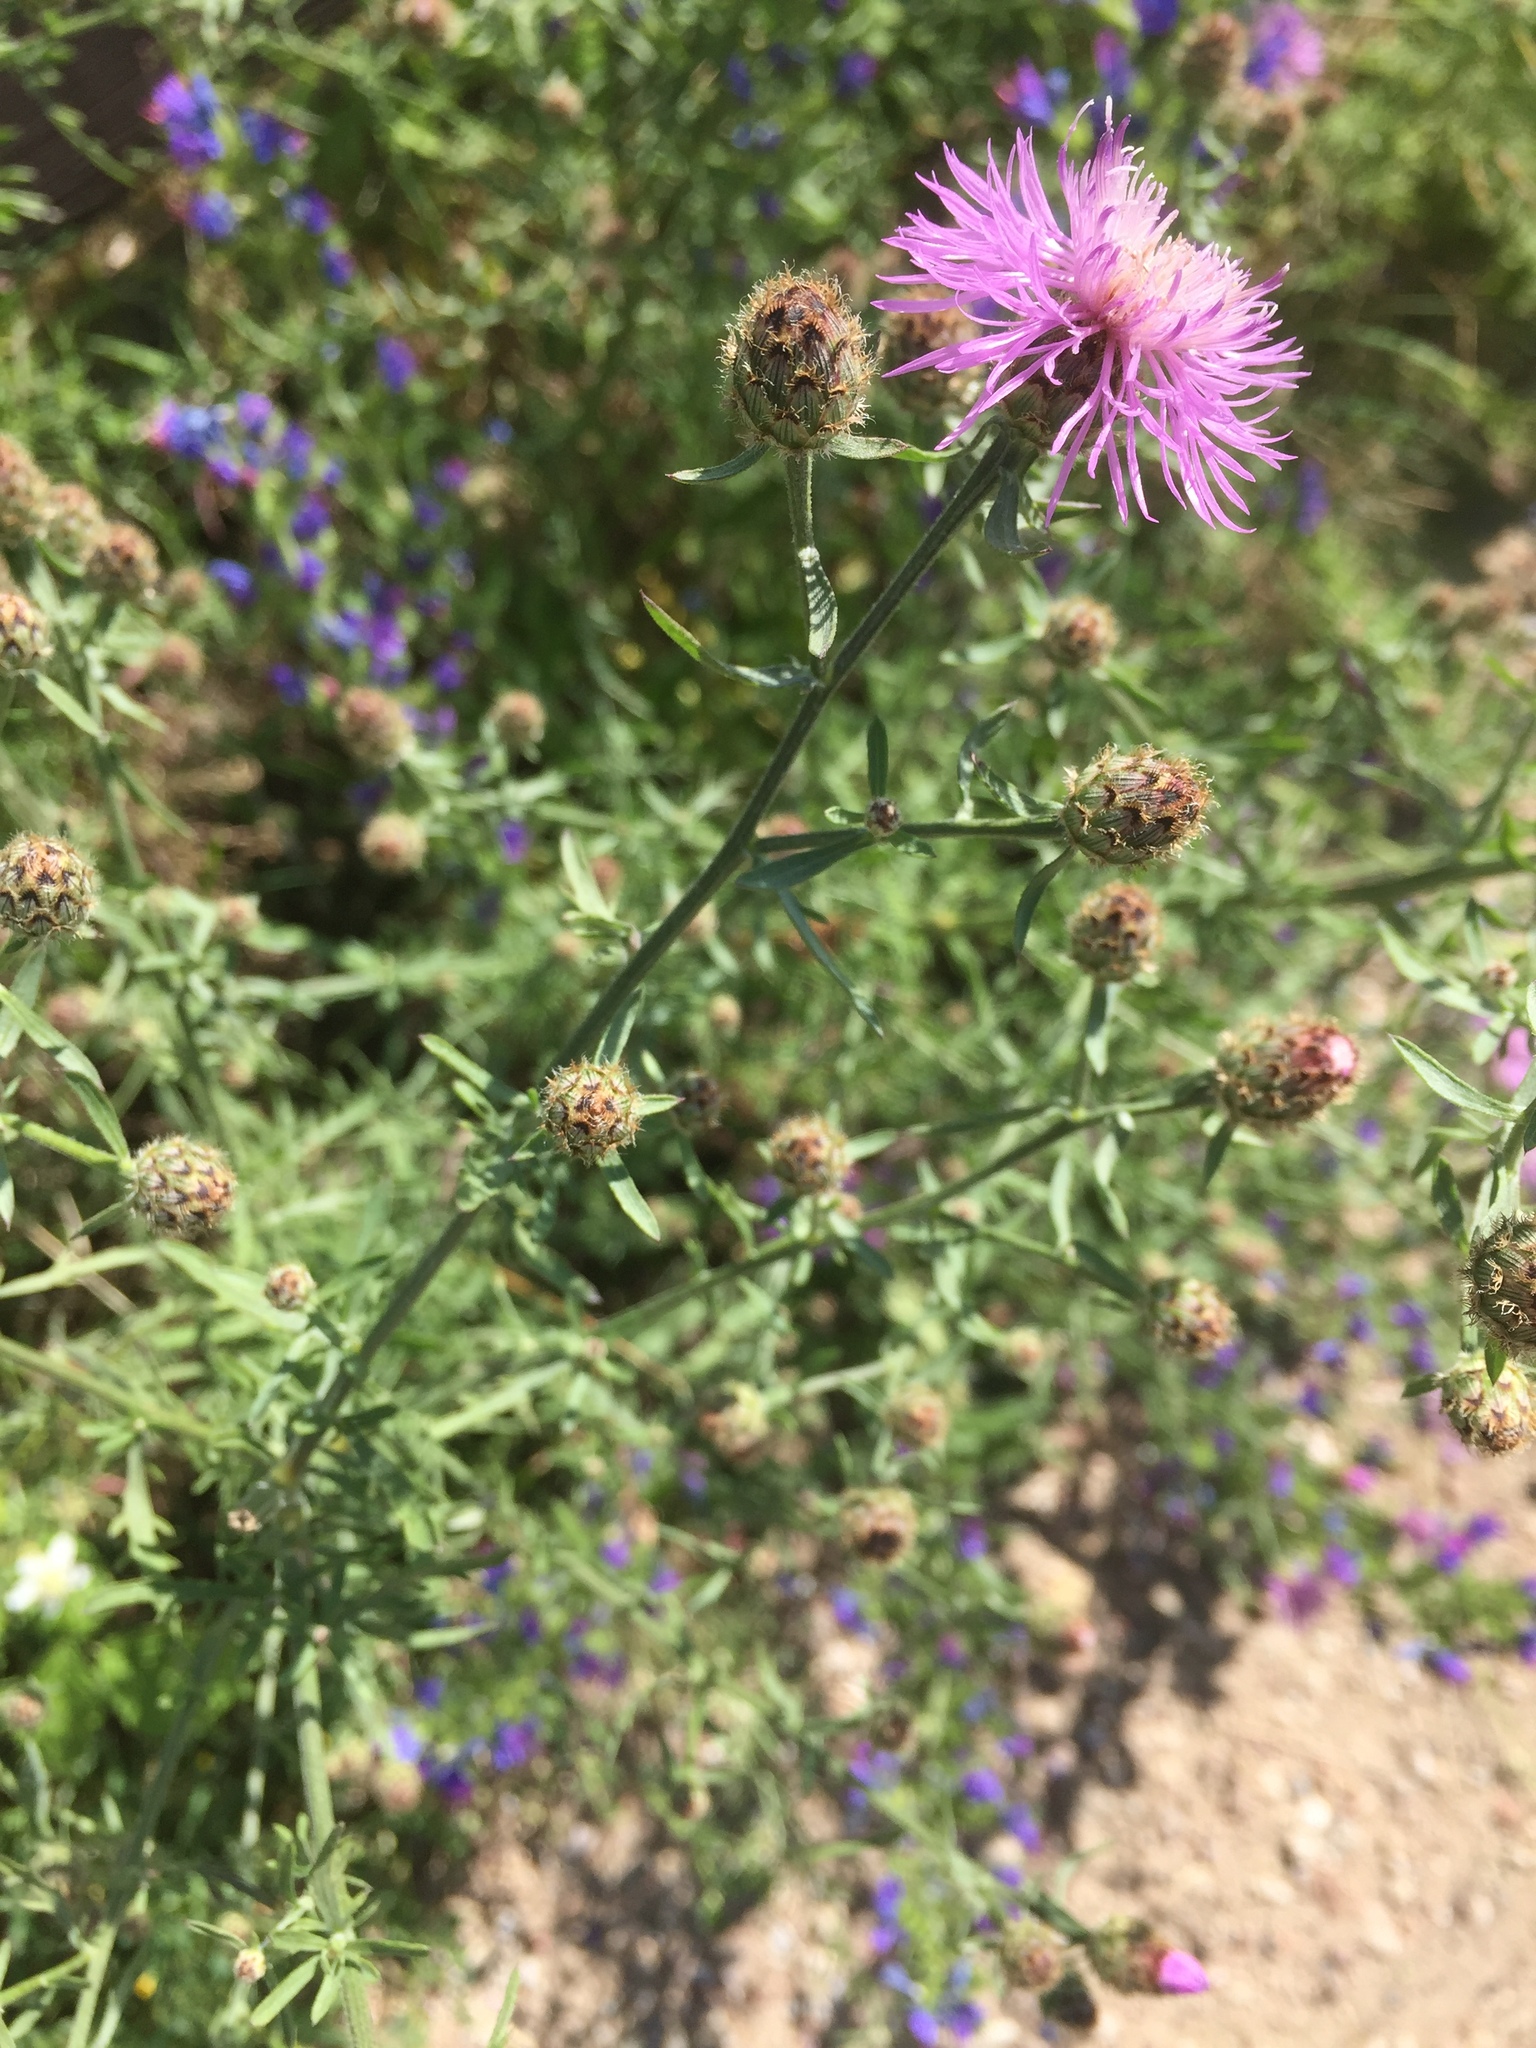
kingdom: Plantae
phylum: Tracheophyta
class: Magnoliopsida
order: Asterales
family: Asteraceae
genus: Centaurea
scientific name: Centaurea stoebe
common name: Spotted knapweed
